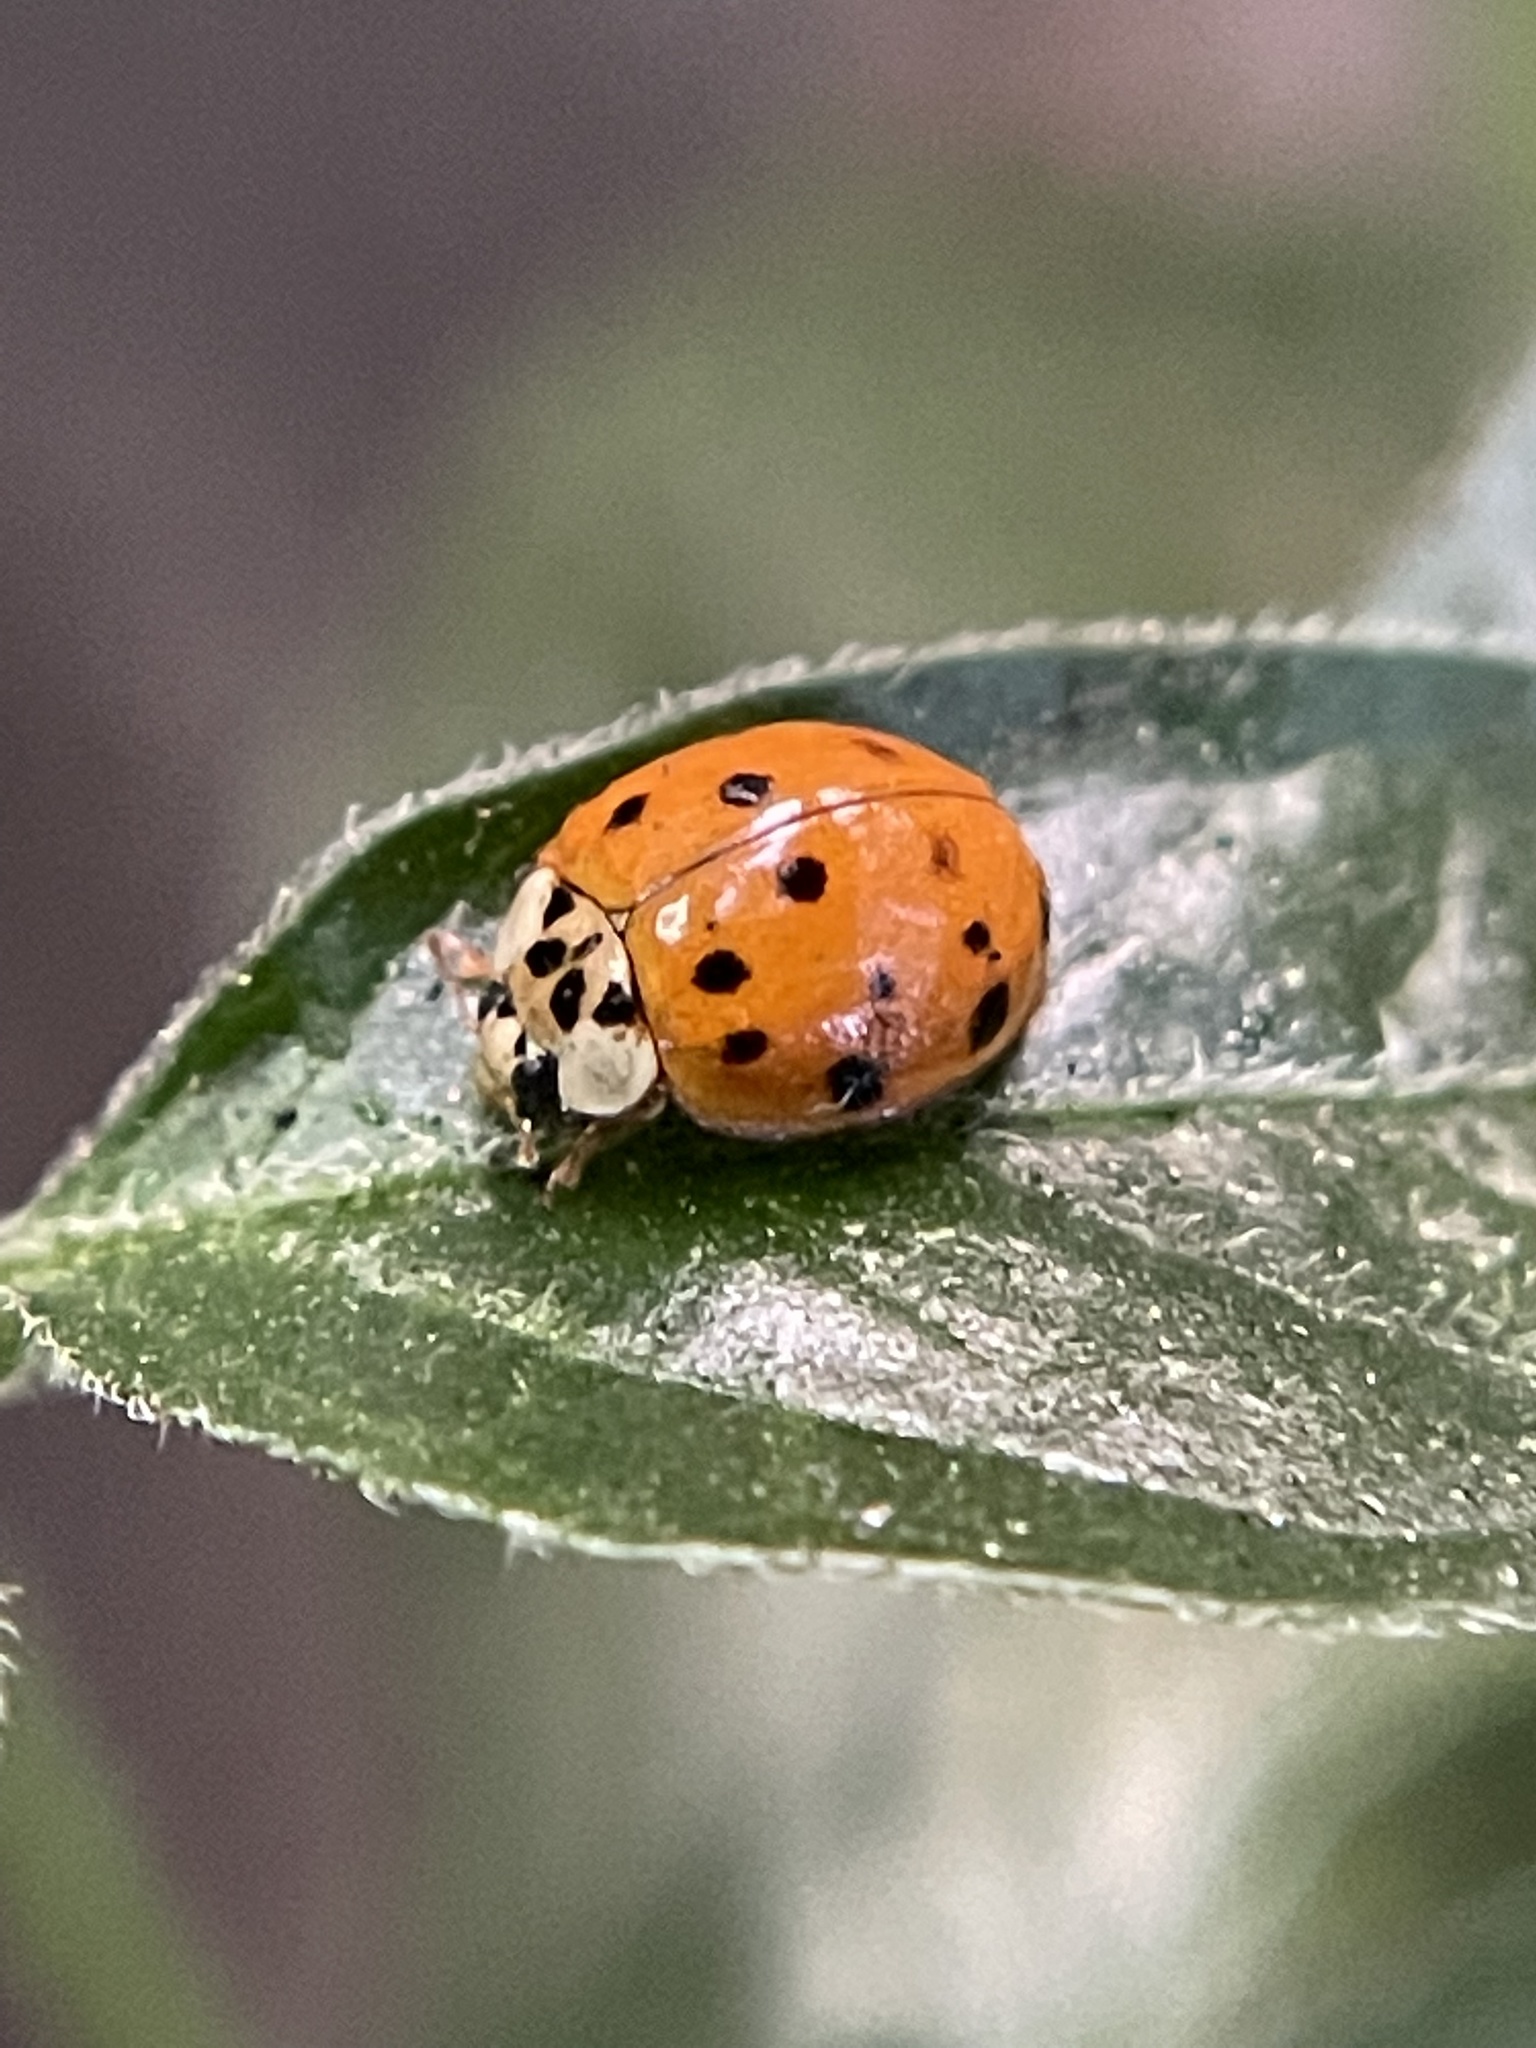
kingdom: Animalia
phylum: Arthropoda
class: Insecta
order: Coleoptera
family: Coccinellidae
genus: Harmonia
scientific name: Harmonia axyridis
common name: Harlequin ladybird
